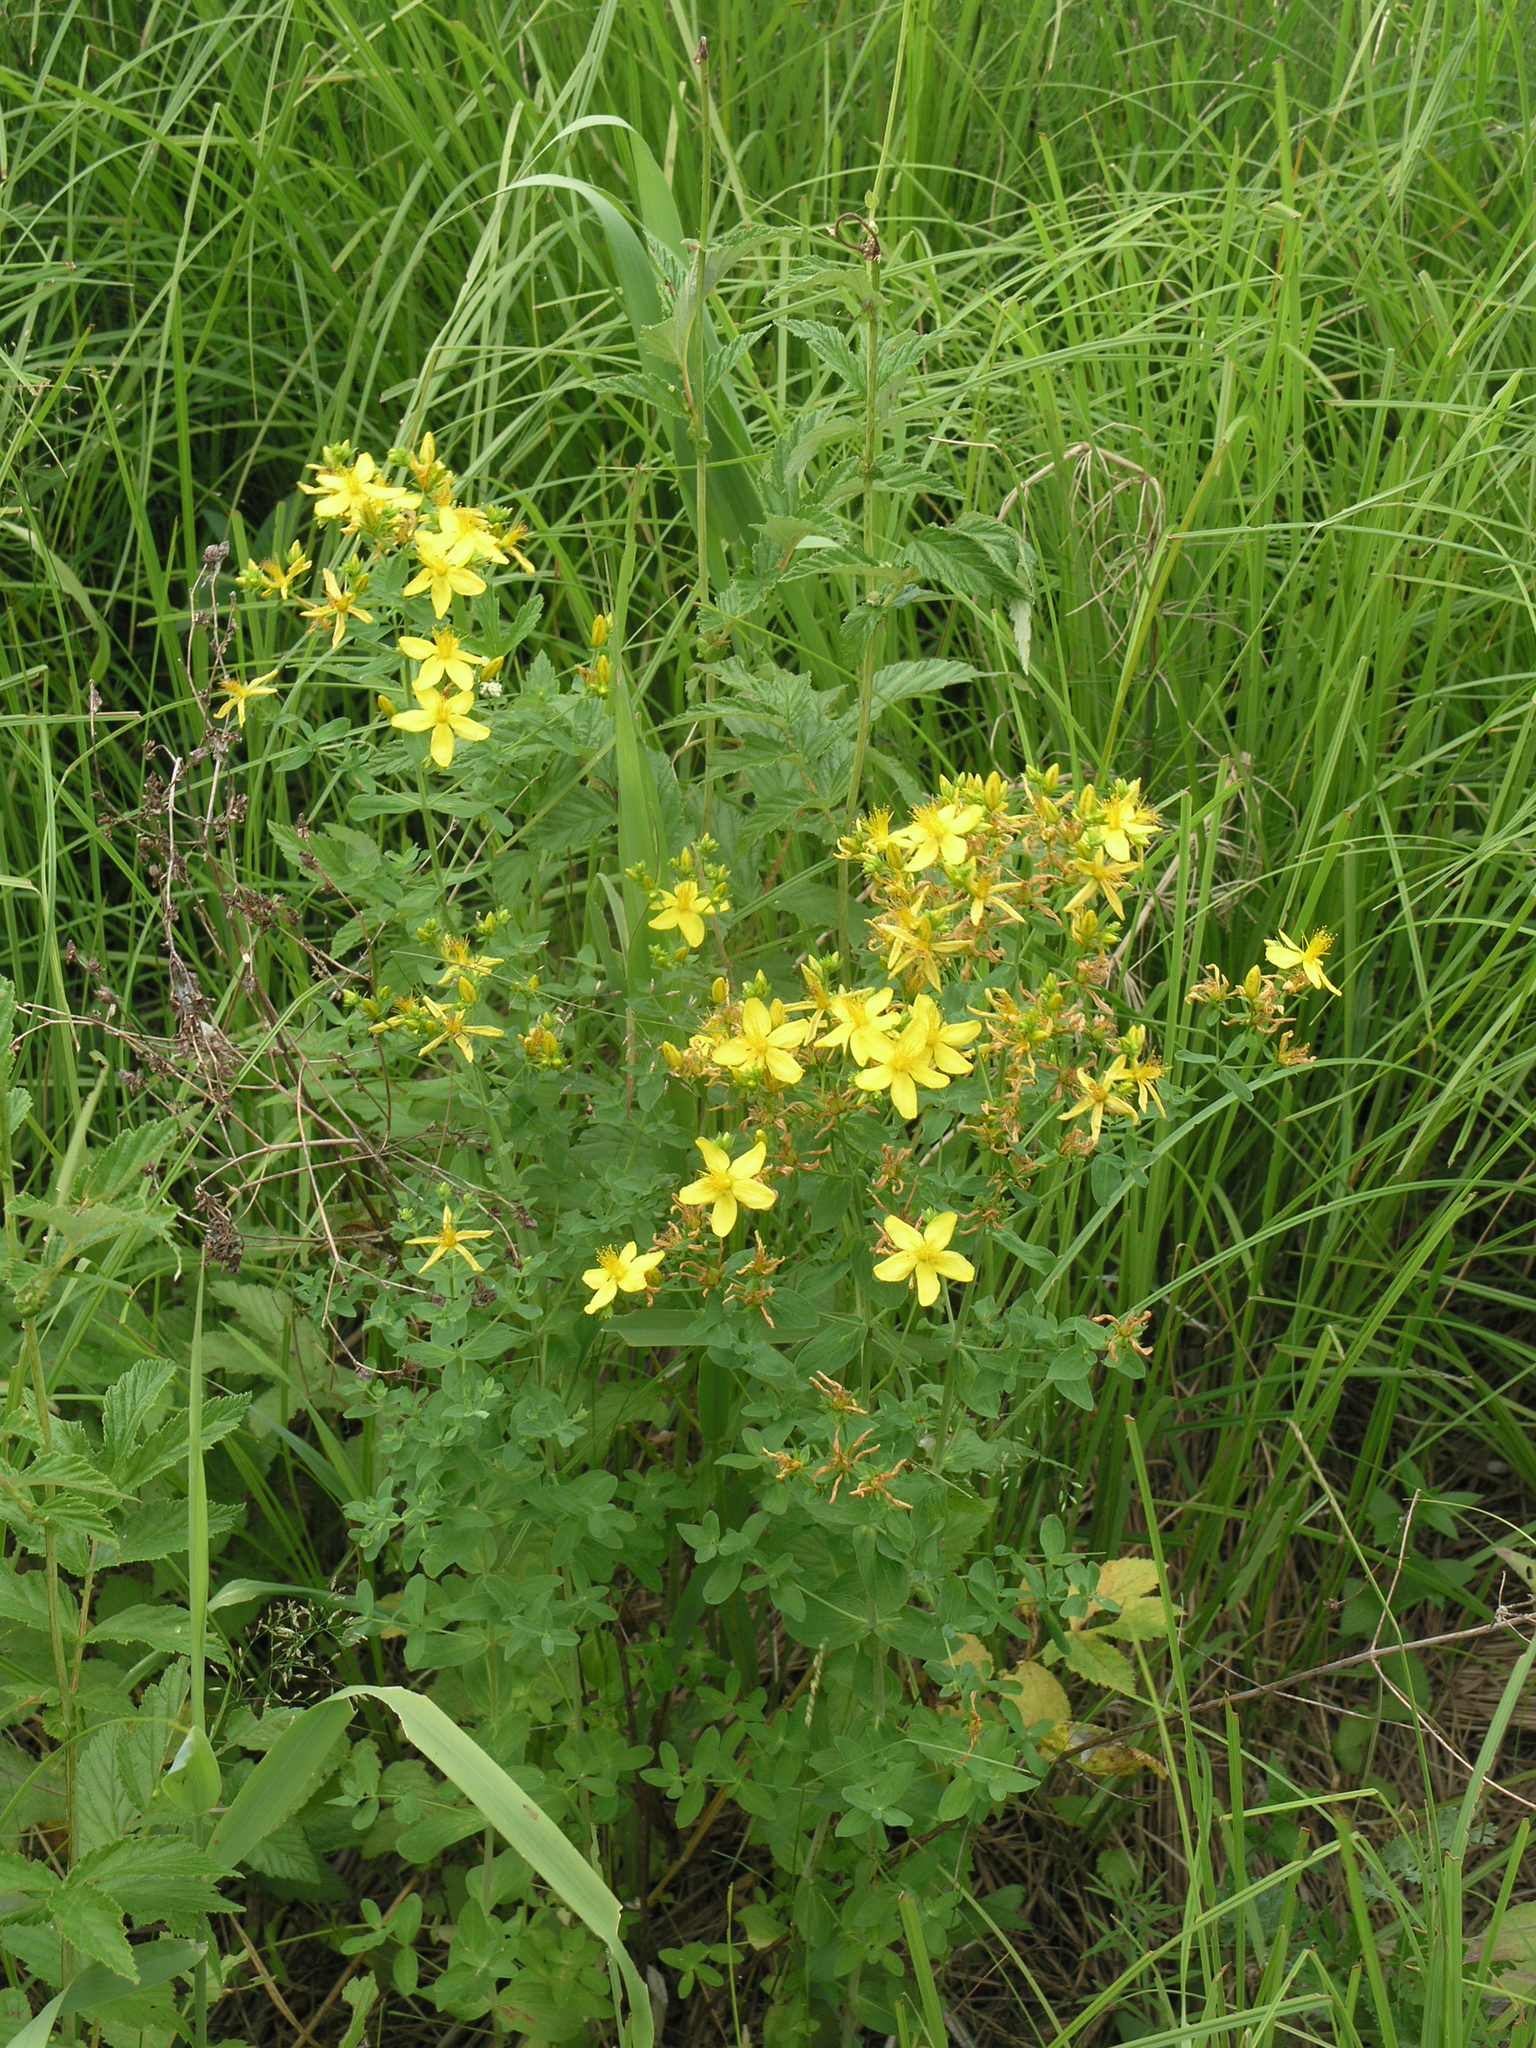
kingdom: Plantae
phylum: Tracheophyta
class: Magnoliopsida
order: Malpighiales
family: Hypericaceae
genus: Hypericum
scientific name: Hypericum perforatum
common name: Common st. johnswort
